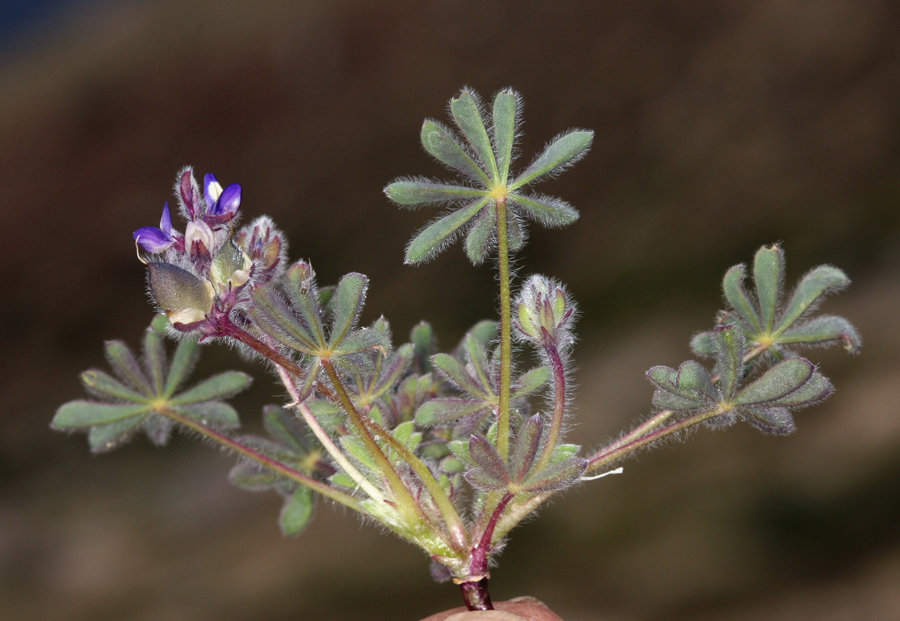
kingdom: Plantae
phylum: Tracheophyta
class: Magnoliopsida
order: Fabales
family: Fabaceae
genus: Lupinus
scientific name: Lupinus brevicaulis
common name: Sand lupine
